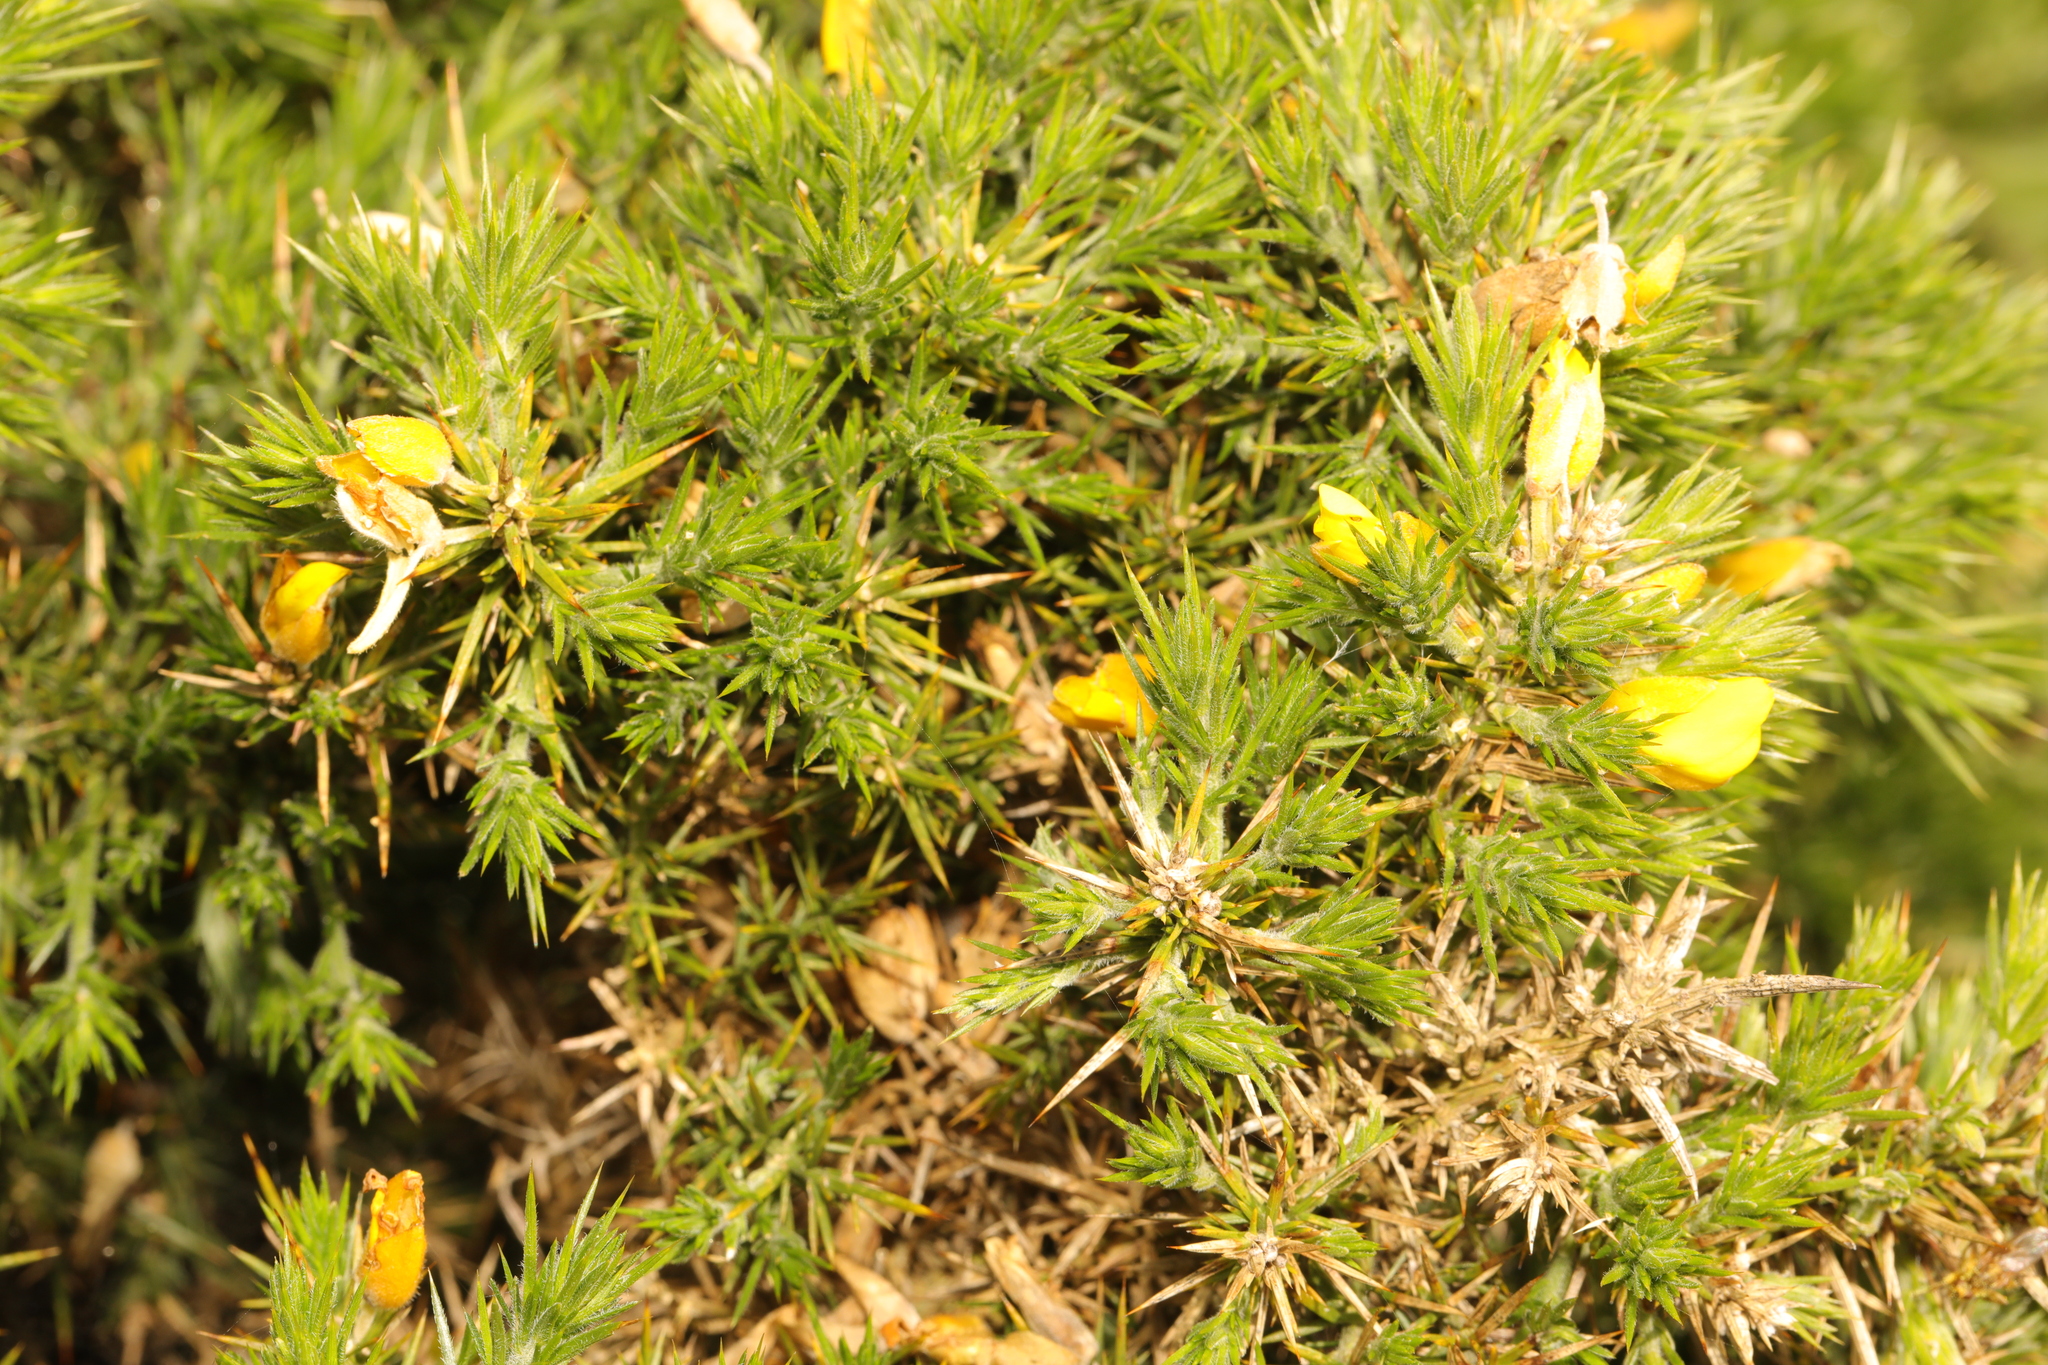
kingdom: Plantae
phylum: Tracheophyta
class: Magnoliopsida
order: Fabales
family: Fabaceae
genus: Ulex
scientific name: Ulex europaeus
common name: Common gorse
